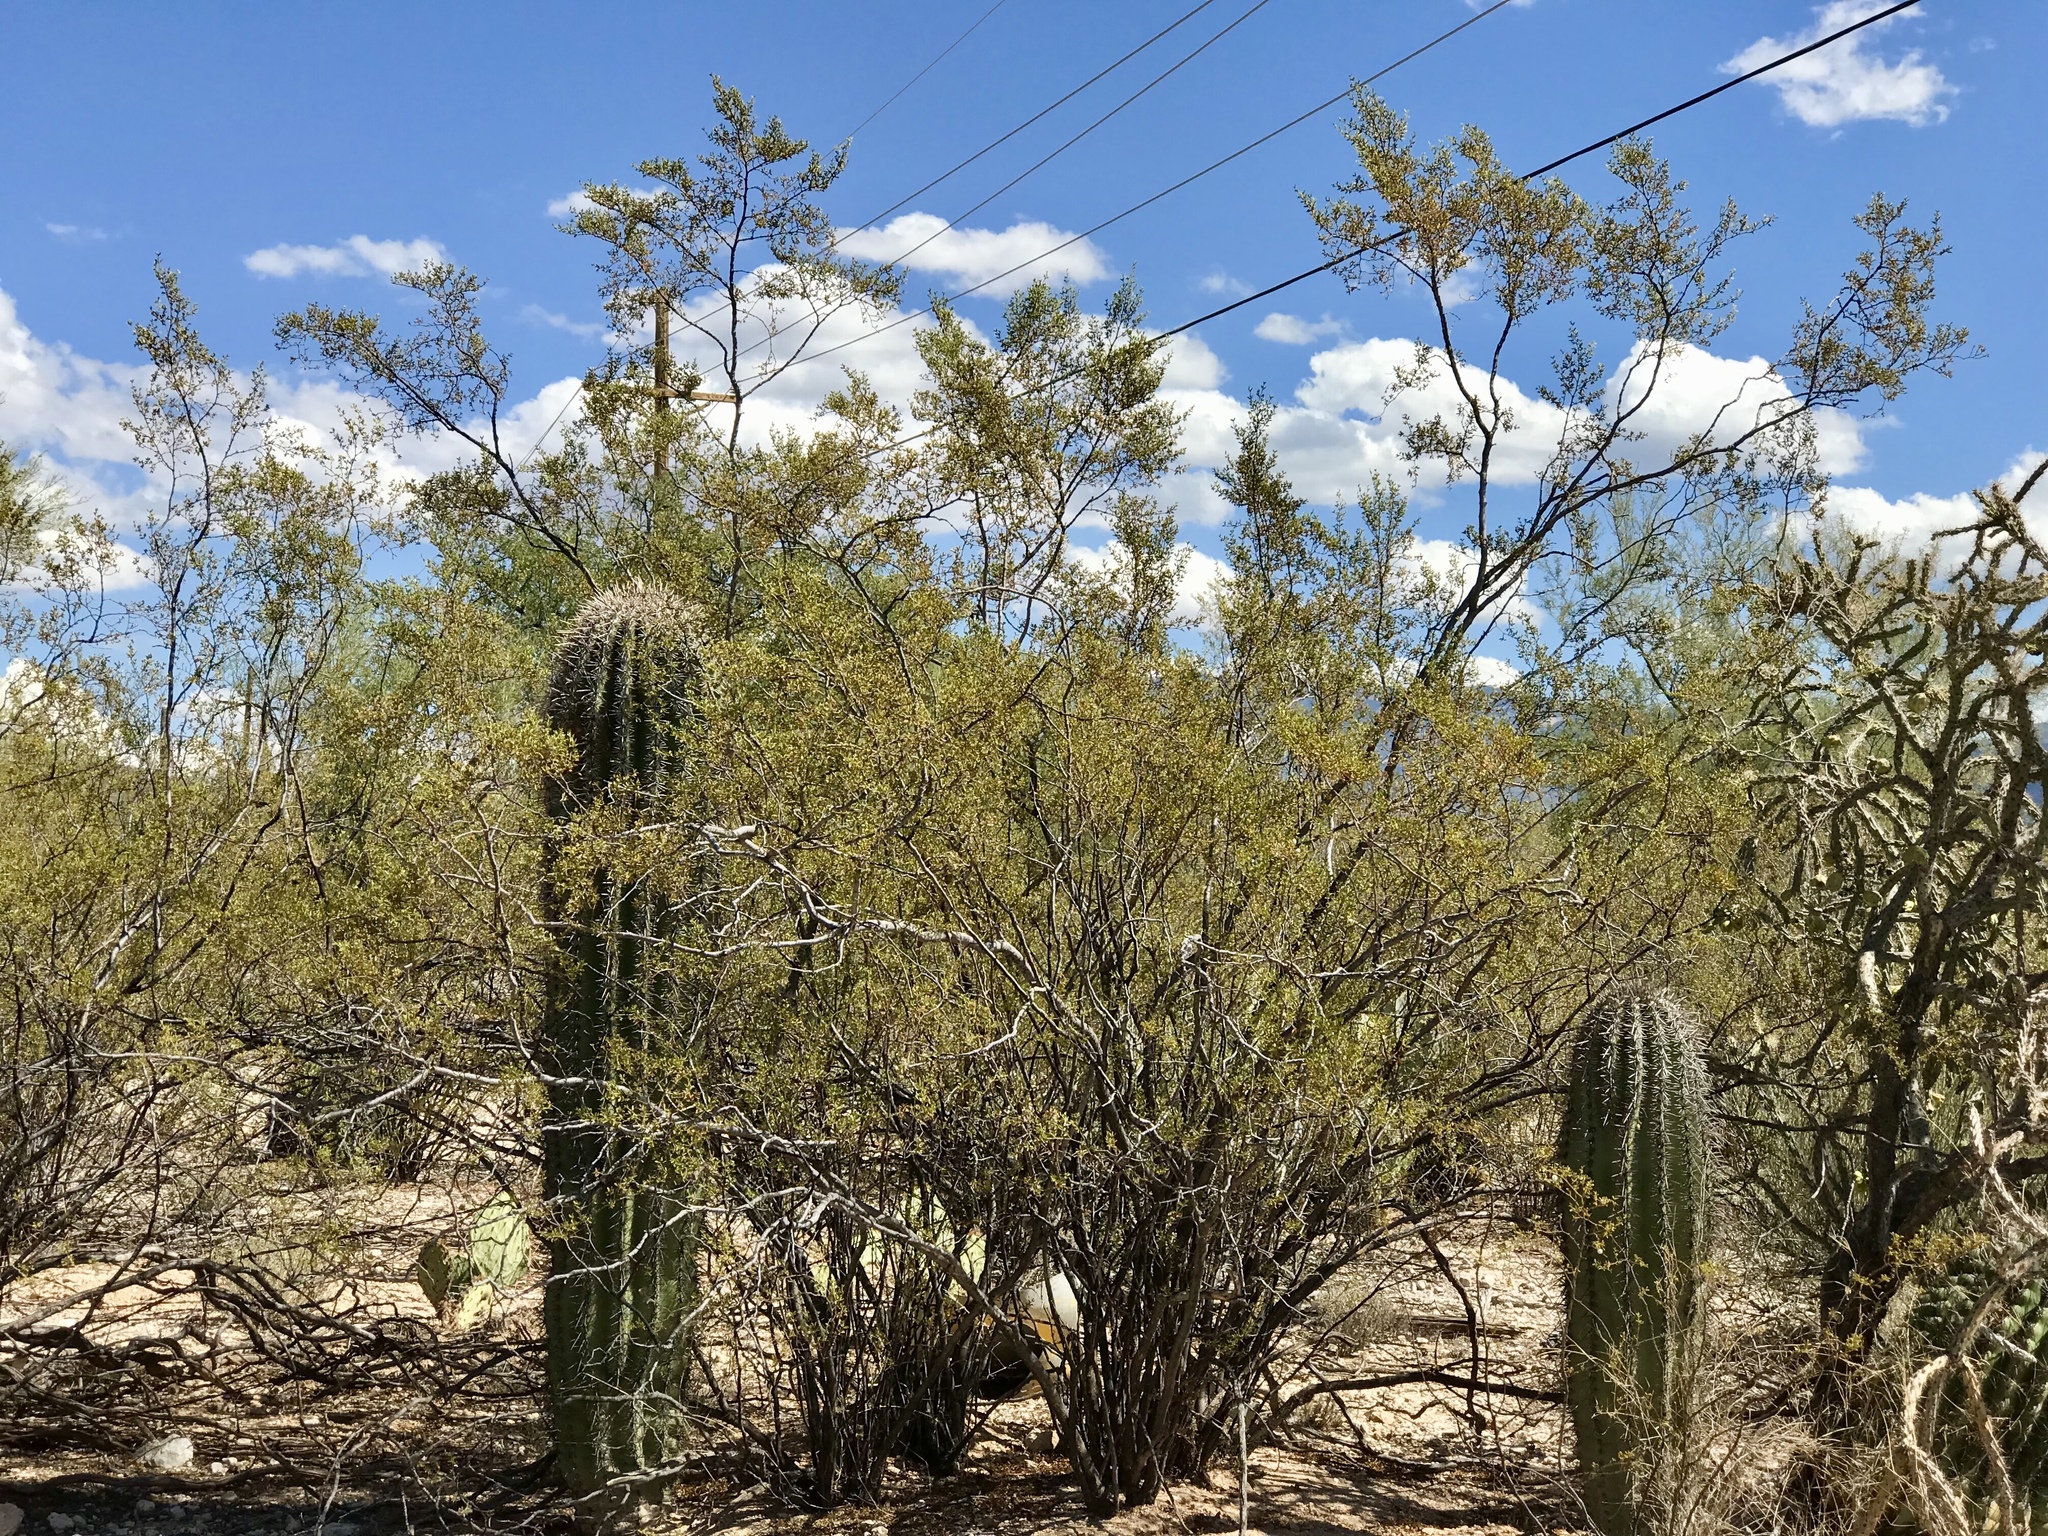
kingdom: Plantae
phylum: Tracheophyta
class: Magnoliopsida
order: Zygophyllales
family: Zygophyllaceae
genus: Larrea
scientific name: Larrea tridentata
